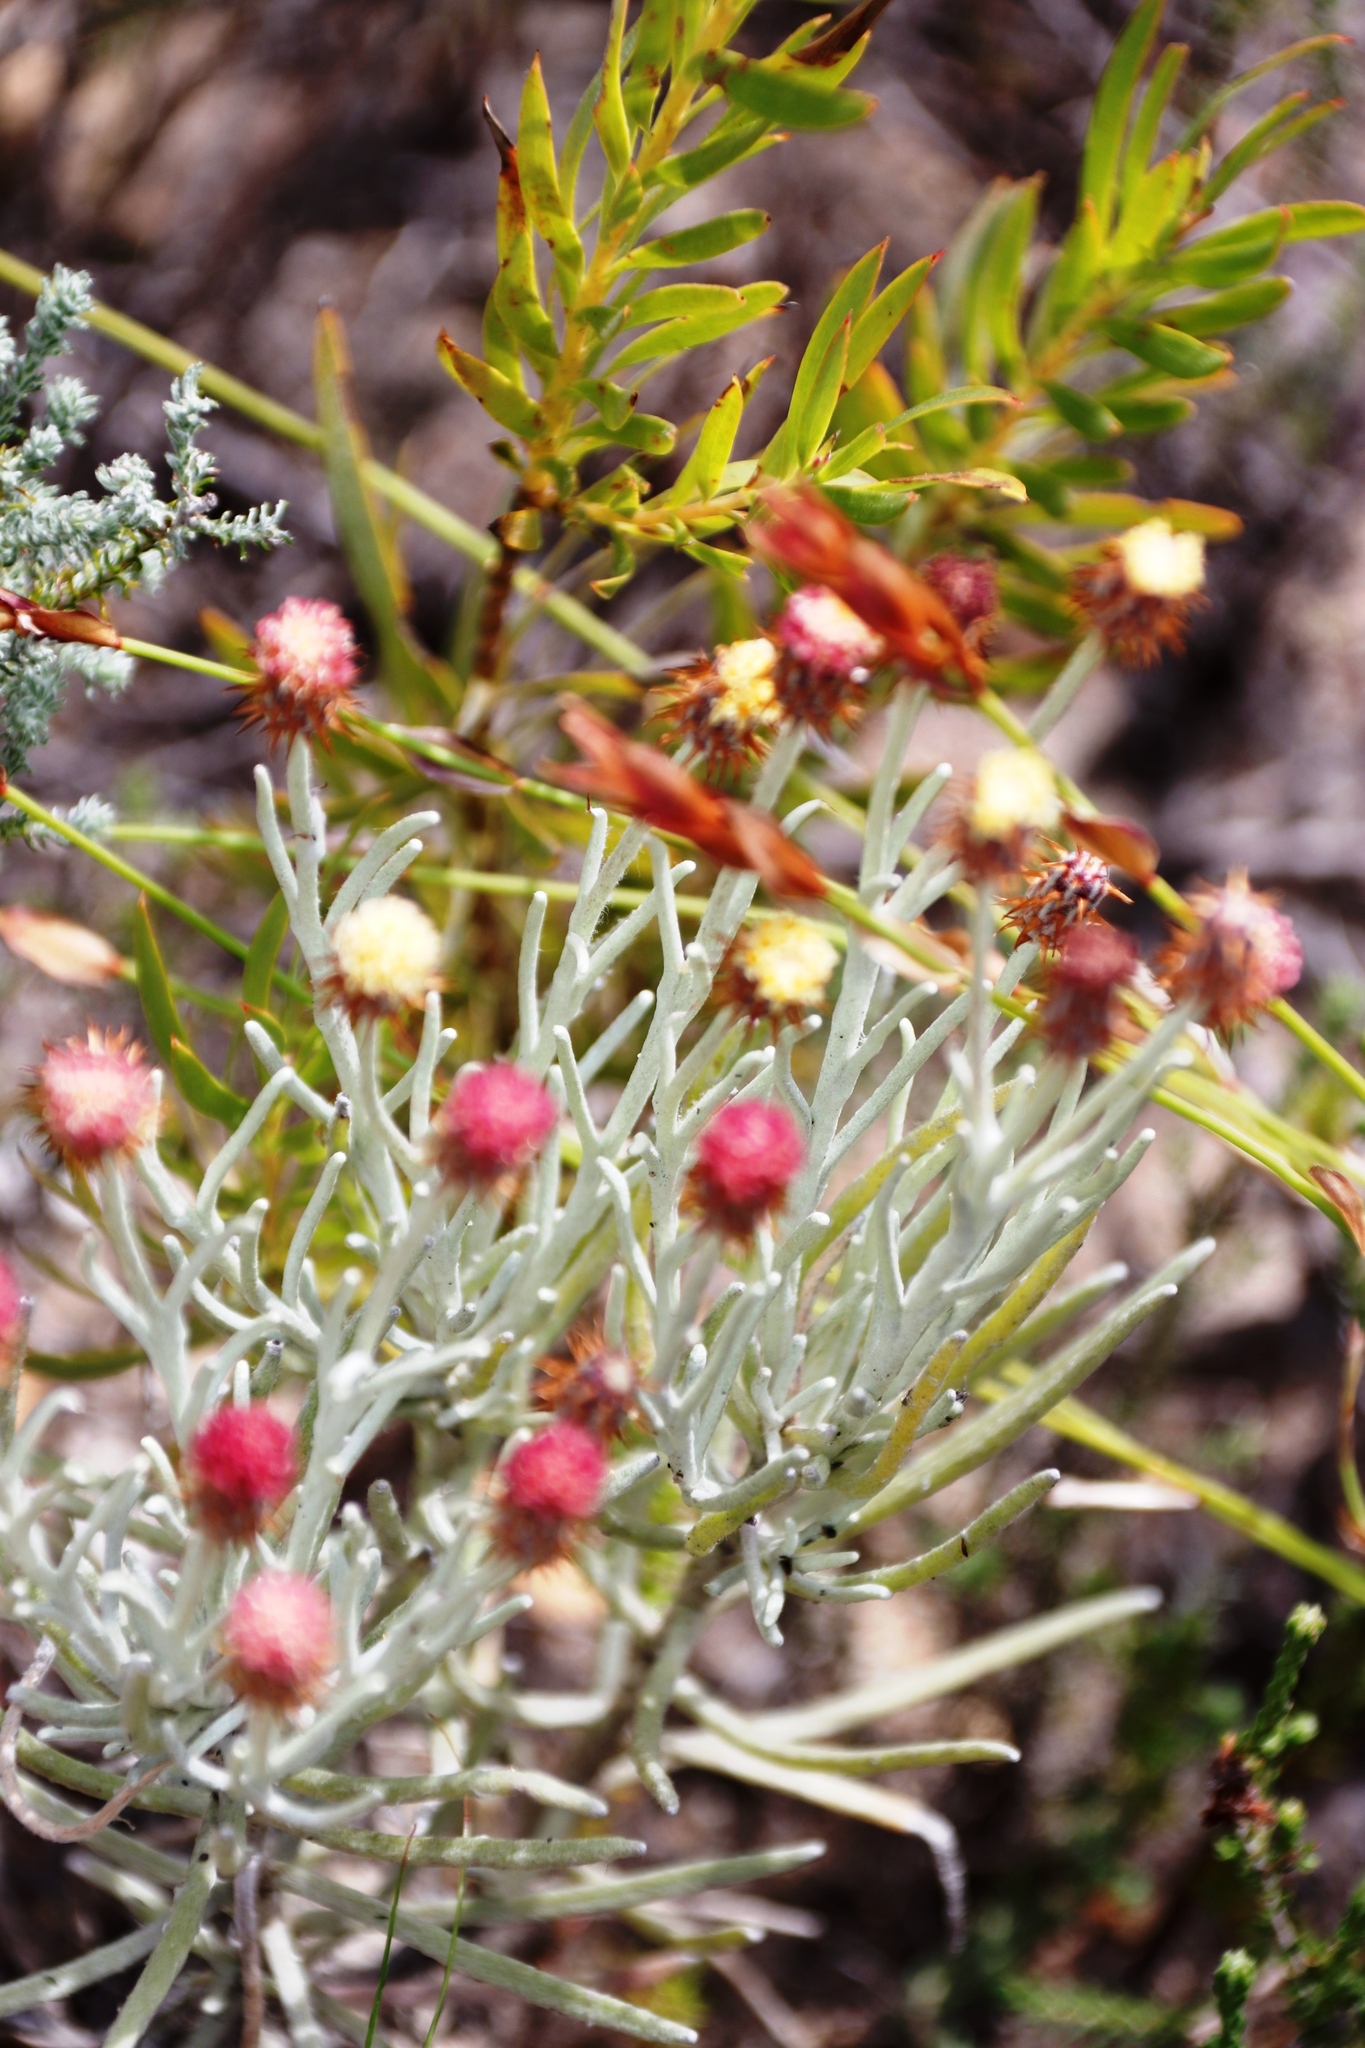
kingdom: Plantae
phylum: Tracheophyta
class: Magnoliopsida
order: Asterales
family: Asteraceae
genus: Syncarpha
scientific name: Syncarpha gnaphaloides
